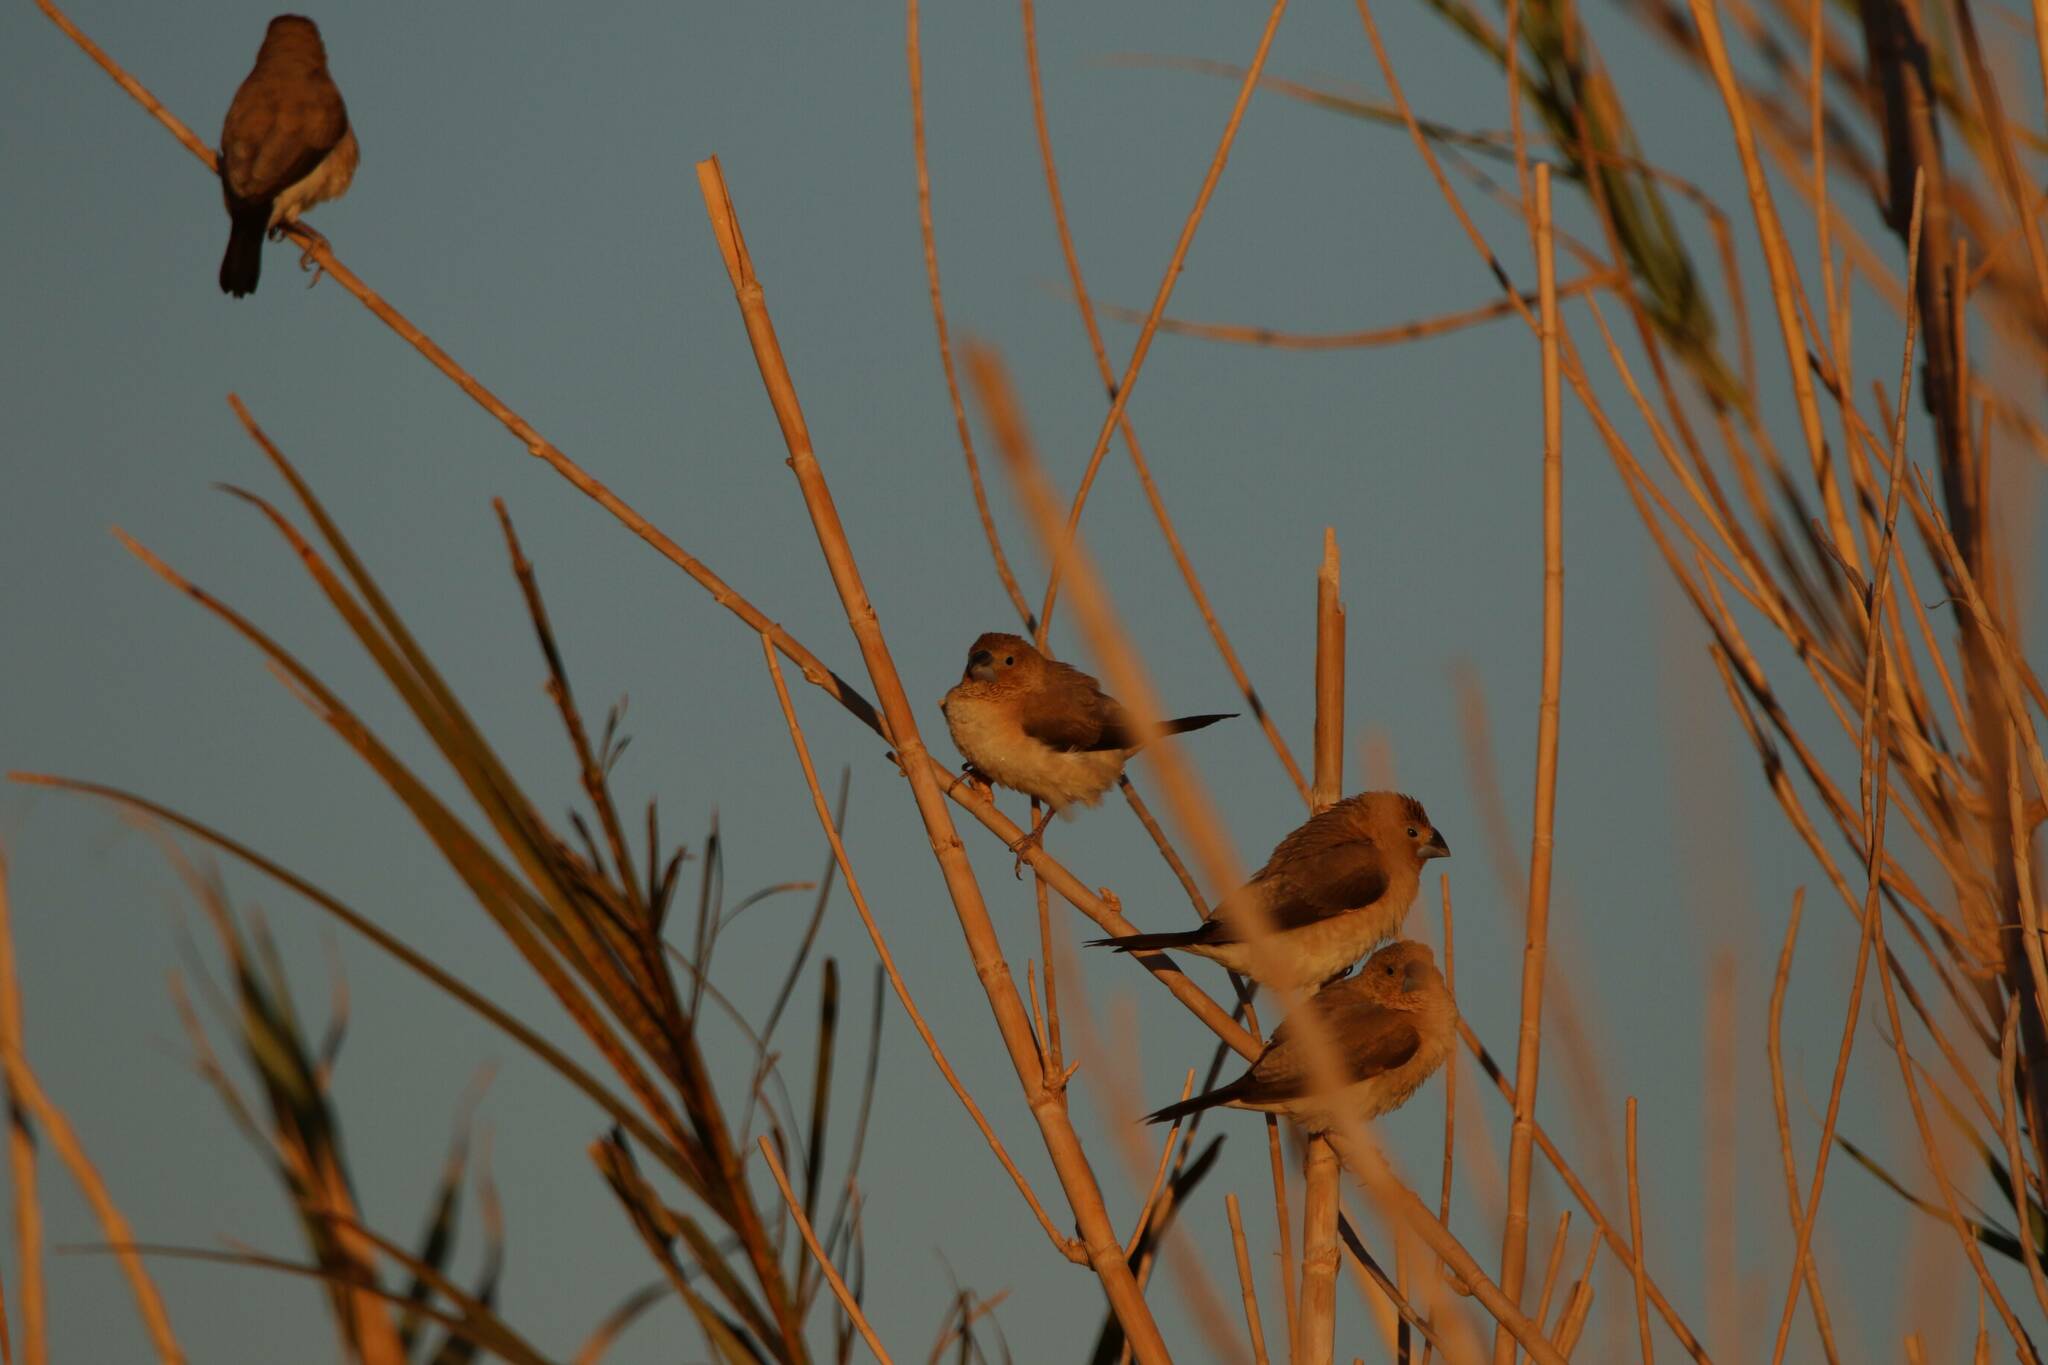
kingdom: Animalia
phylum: Chordata
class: Aves
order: Passeriformes
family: Estrildidae
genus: Euodice
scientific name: Euodice cantans
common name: African silverbill
